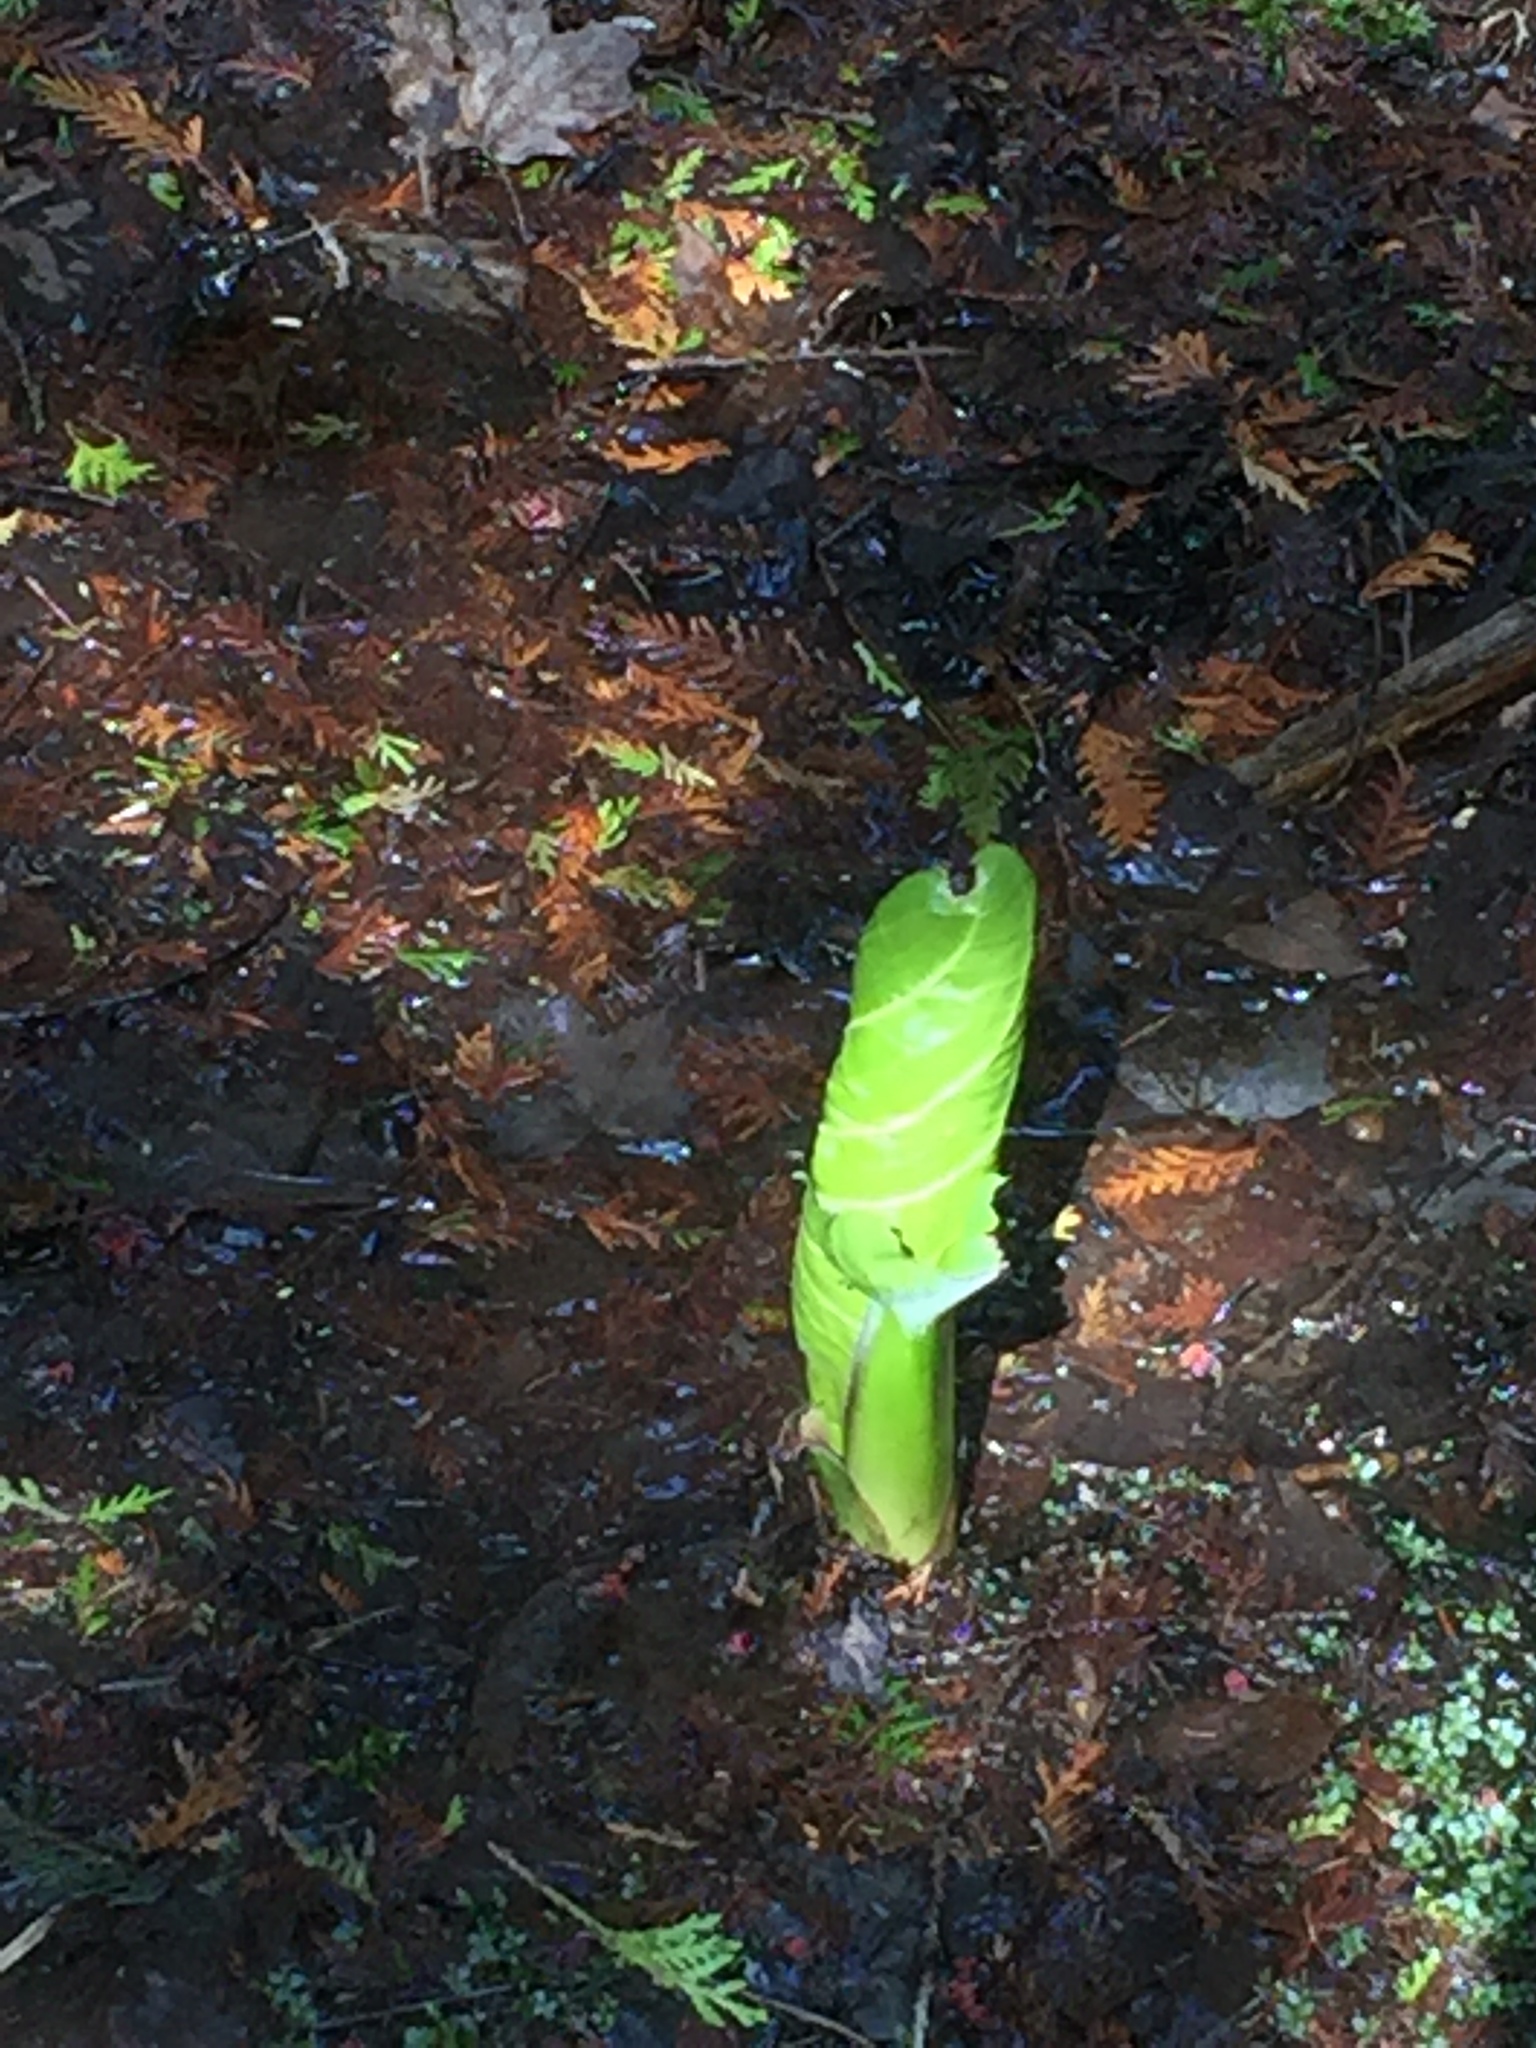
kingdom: Plantae
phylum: Tracheophyta
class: Liliopsida
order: Alismatales
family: Araceae
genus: Symplocarpus
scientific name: Symplocarpus foetidus
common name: Eastern skunk cabbage
